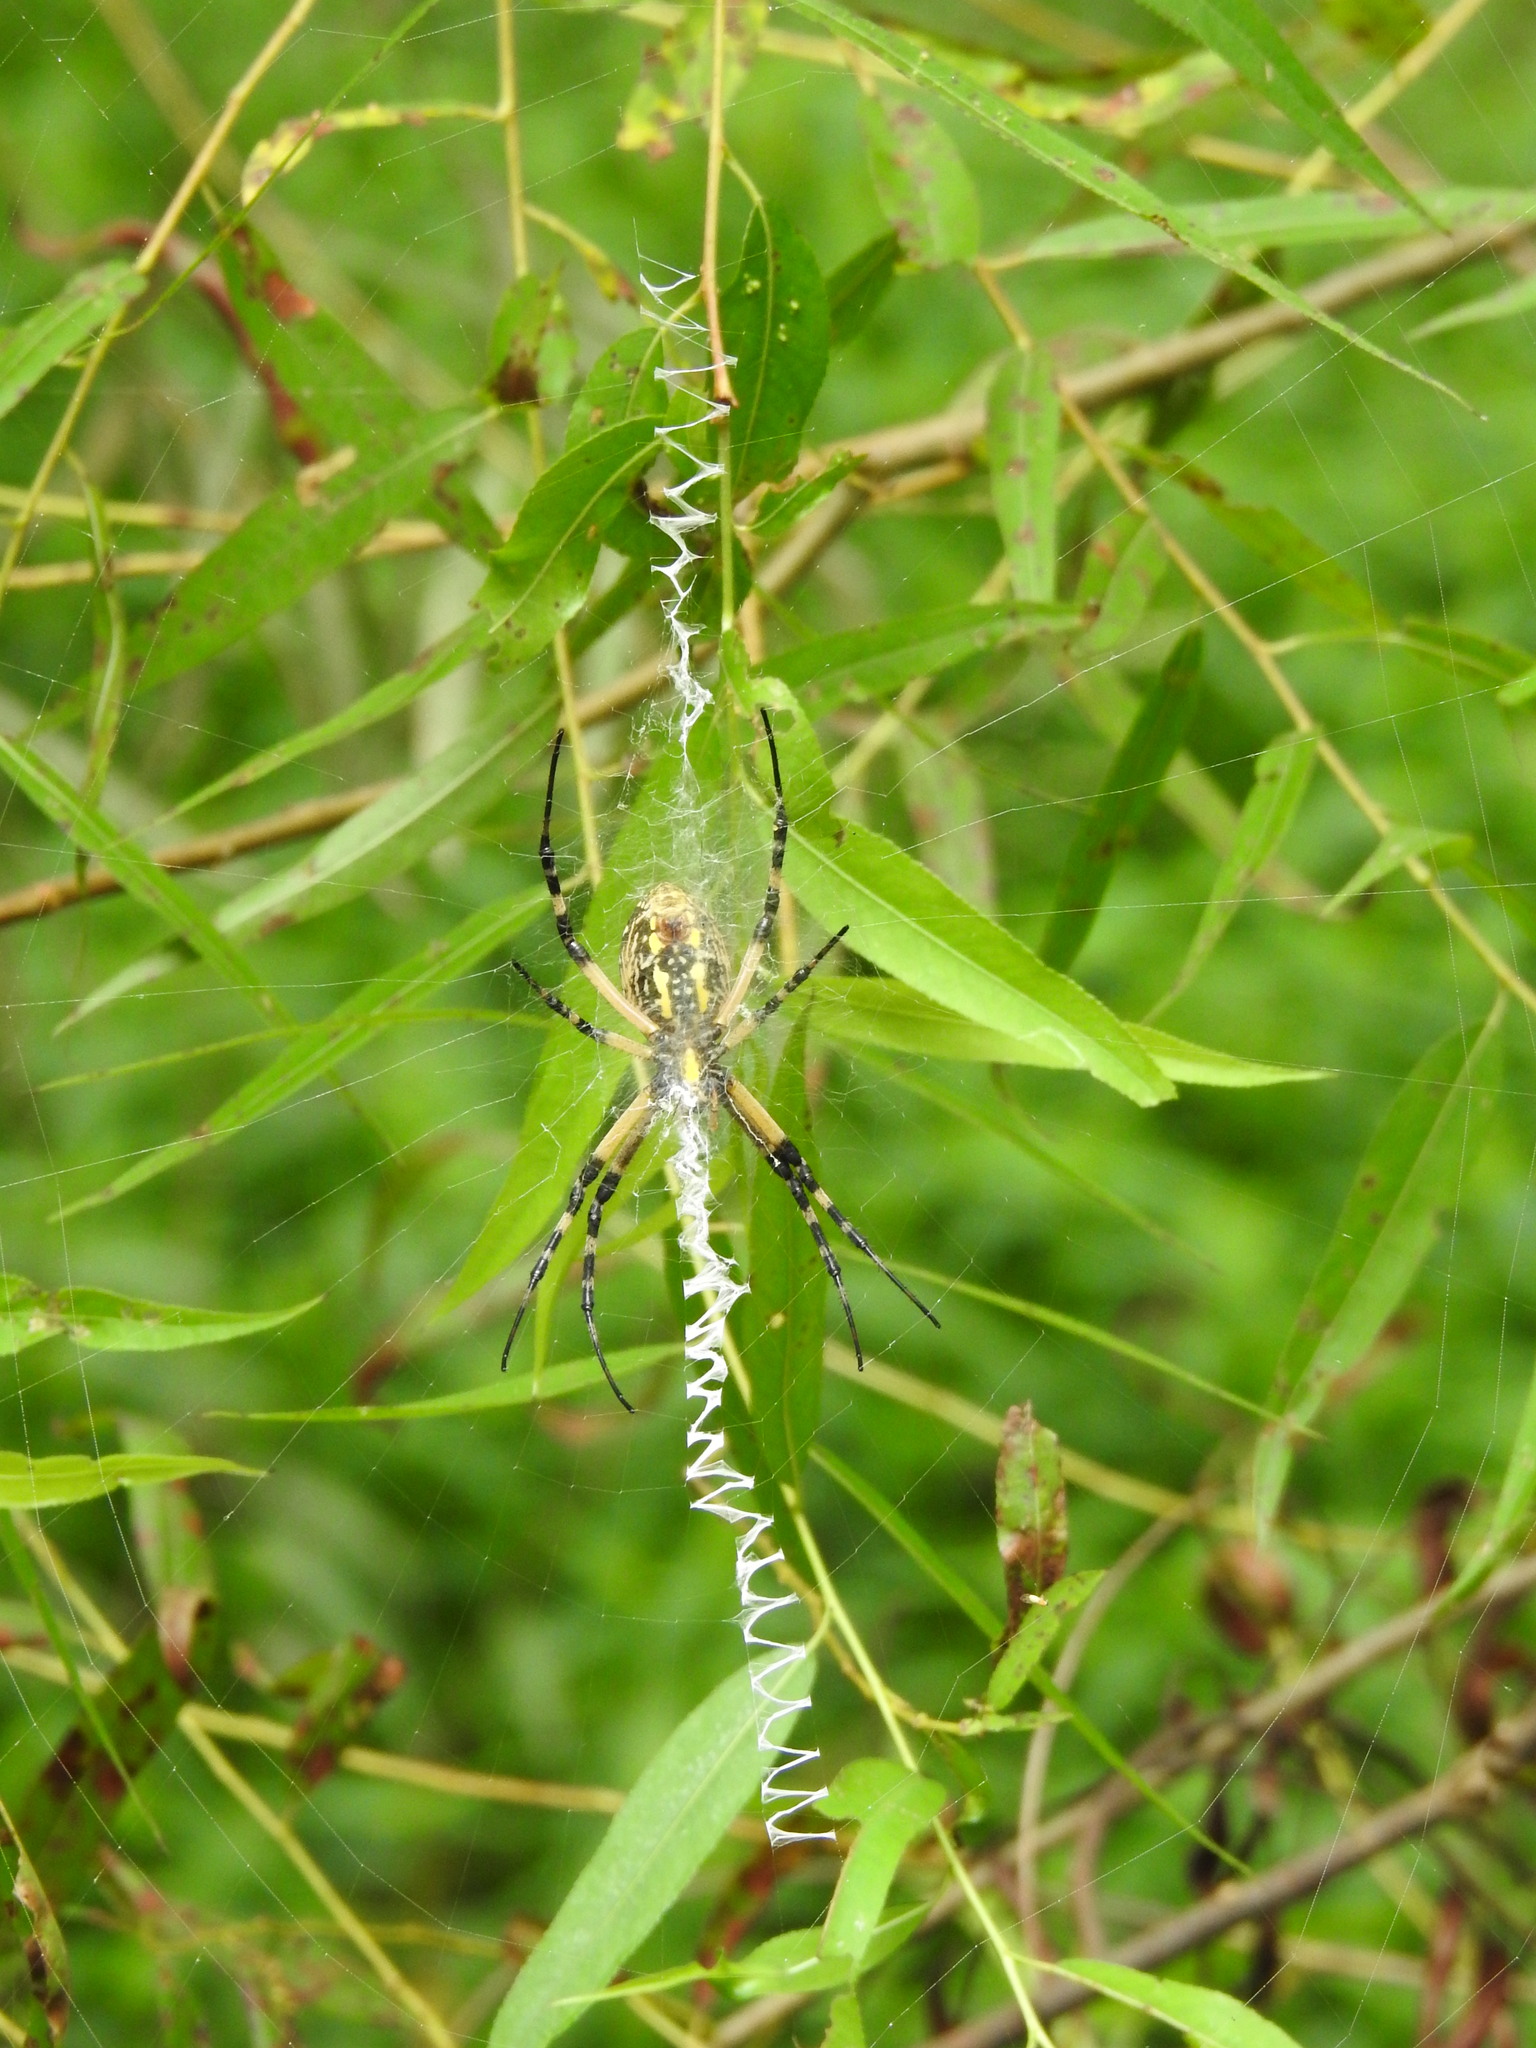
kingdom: Animalia
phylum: Arthropoda
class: Arachnida
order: Araneae
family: Araneidae
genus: Argiope
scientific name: Argiope aurantia
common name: Orb weavers
